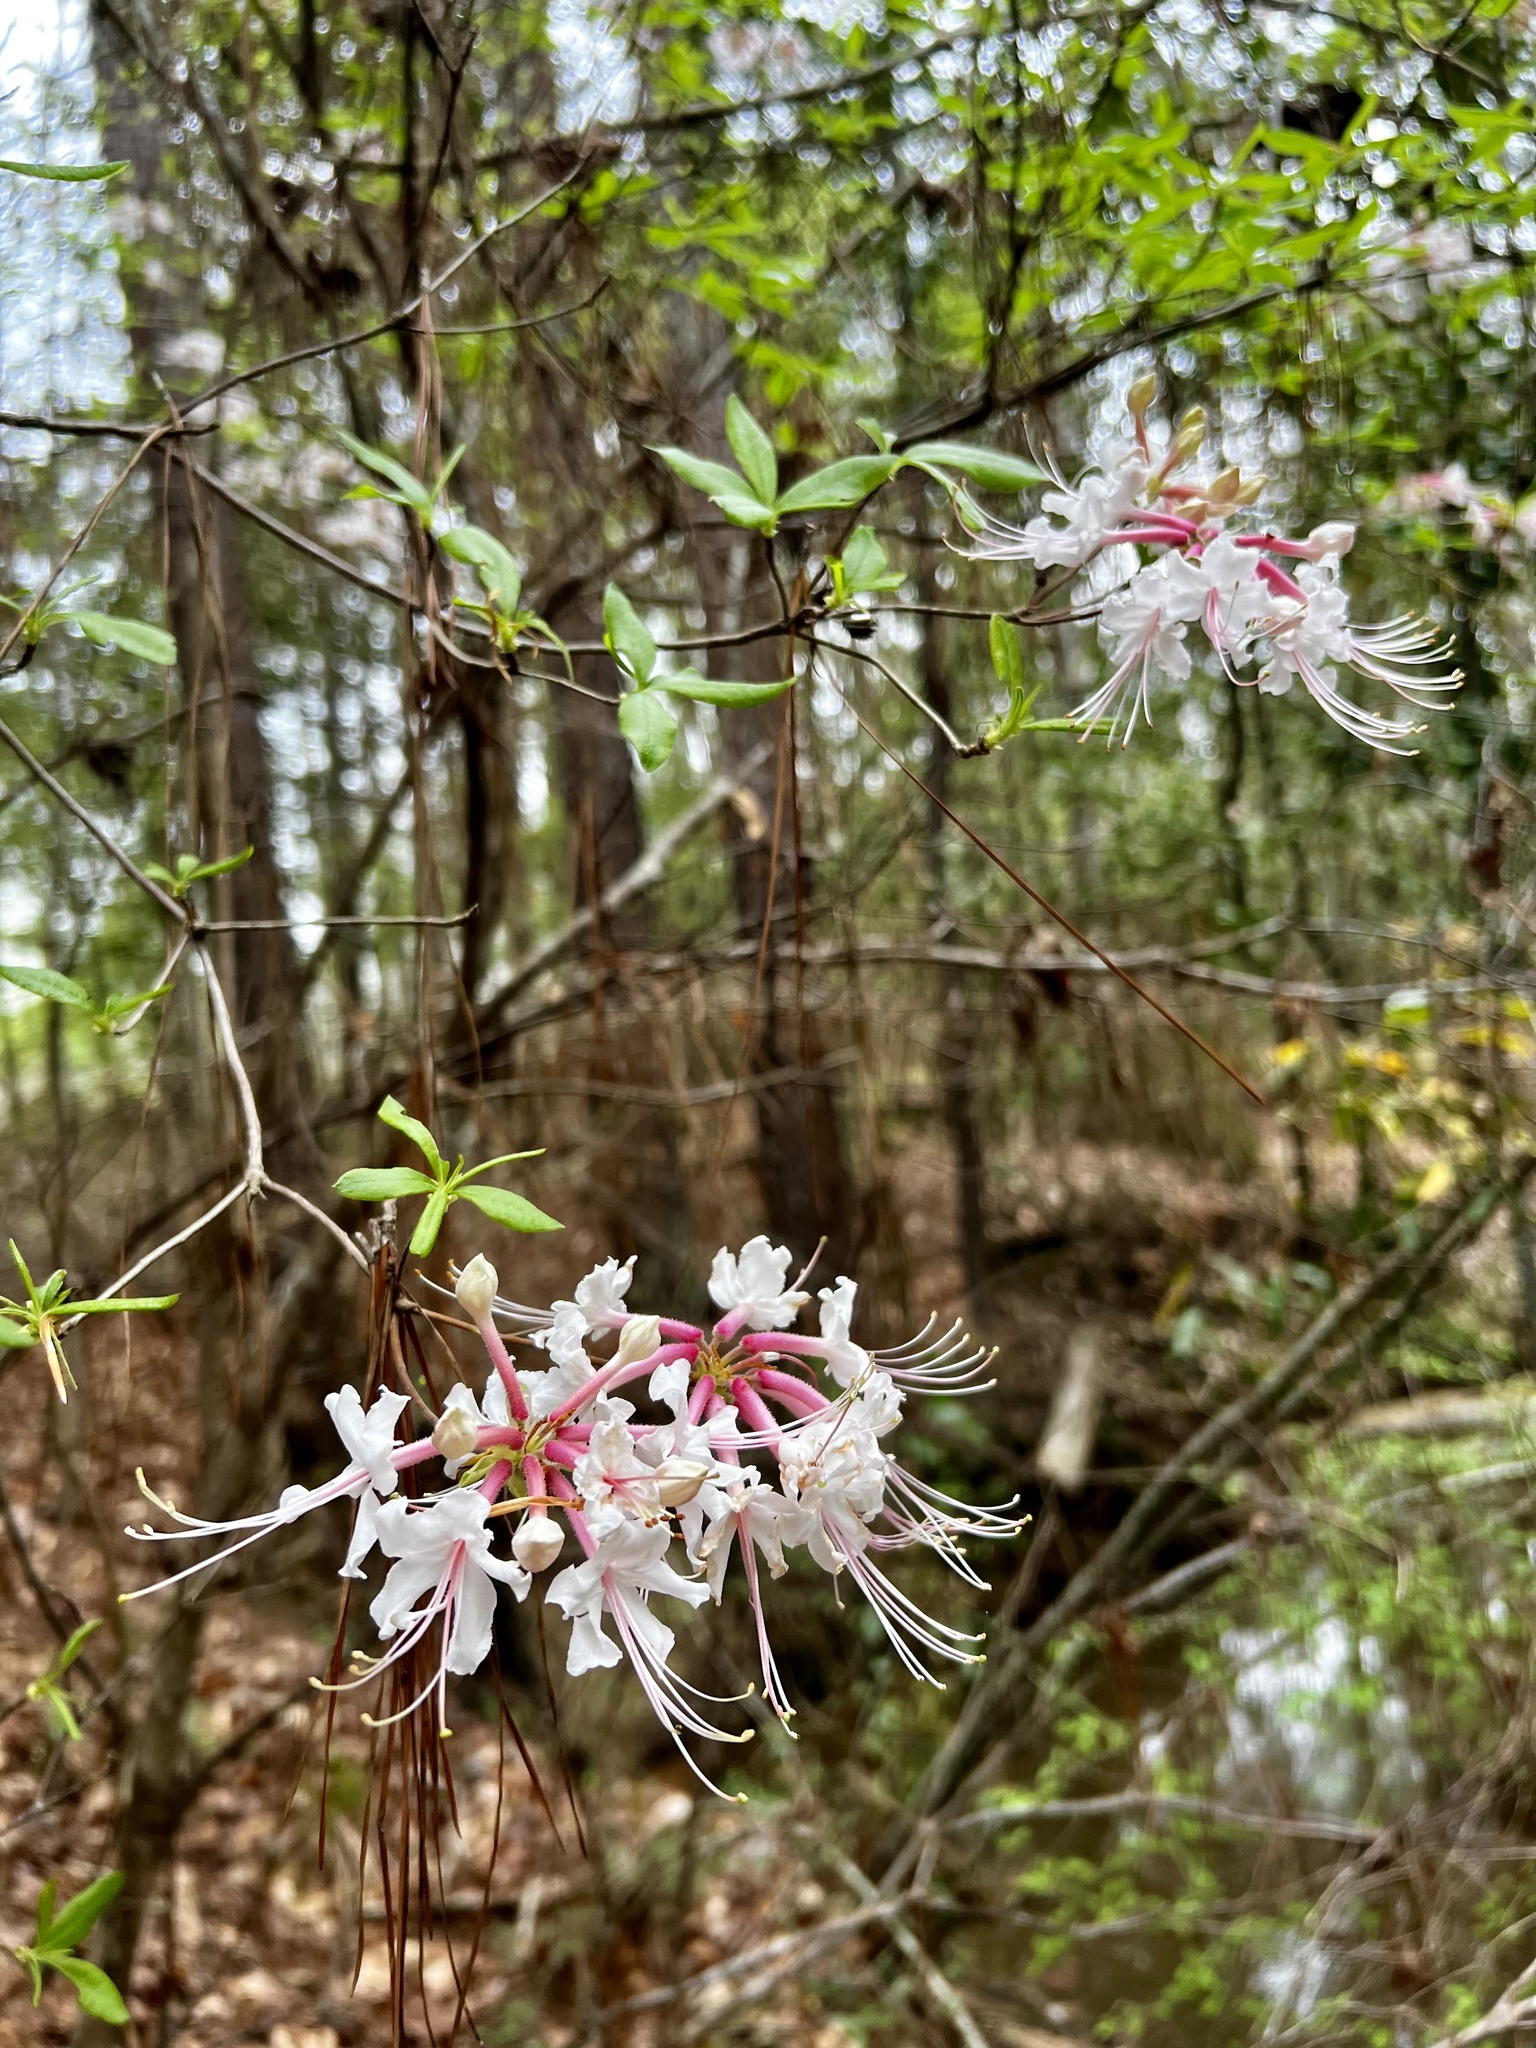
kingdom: Plantae
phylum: Tracheophyta
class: Magnoliopsida
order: Ericales
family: Ericaceae
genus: Rhododendron
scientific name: Rhododendron canescens
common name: Mountain azalea
